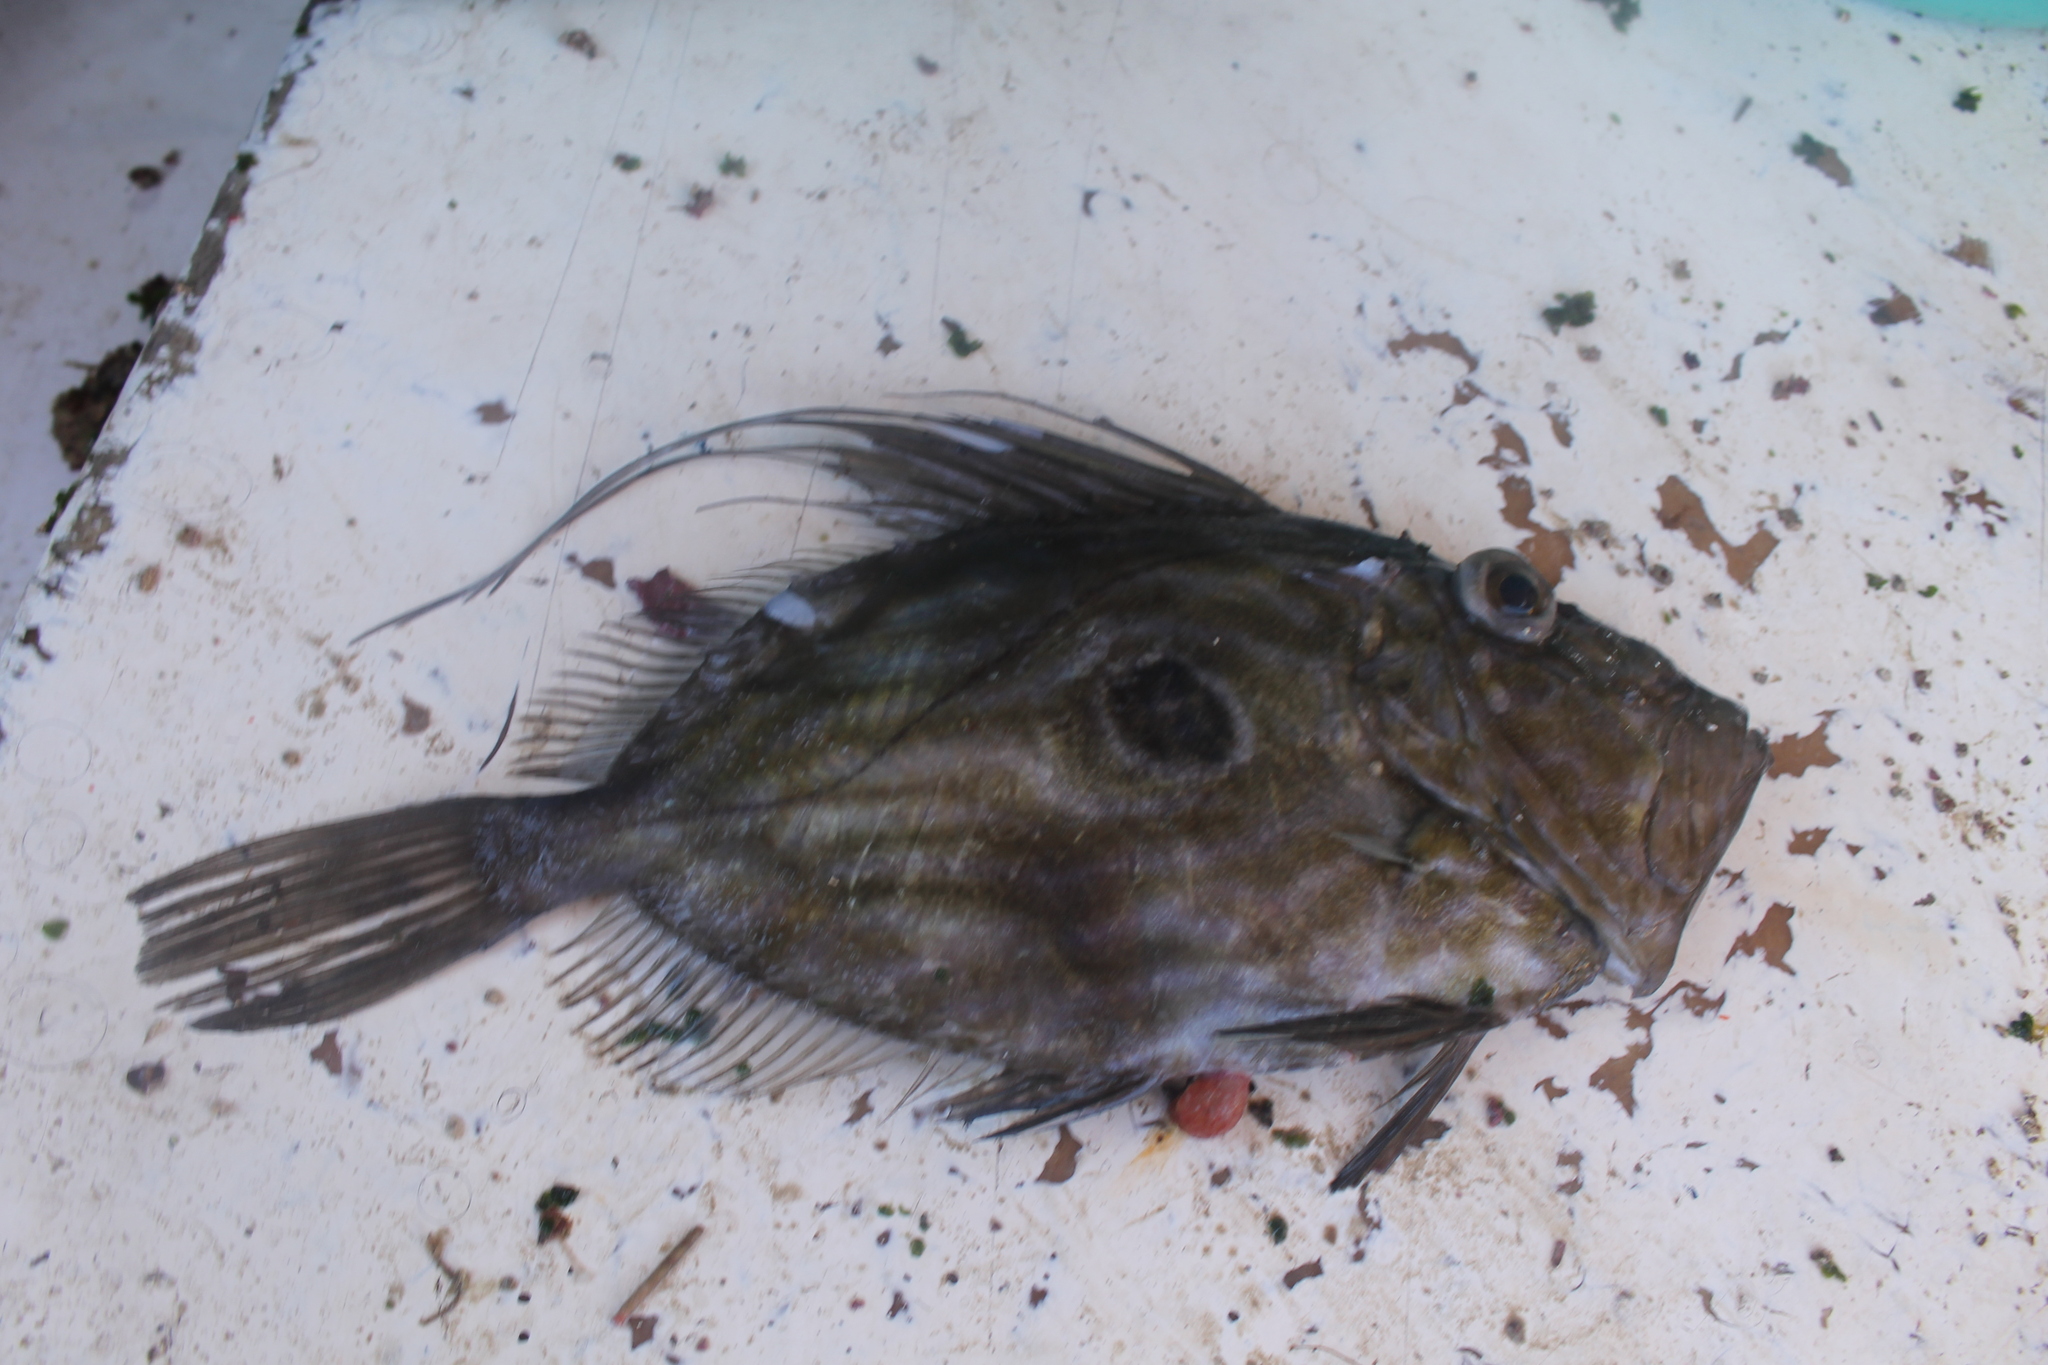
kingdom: Animalia
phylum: Chordata
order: Zeiformes
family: Zeidae
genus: Zeus
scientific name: Zeus faber
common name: John dory
